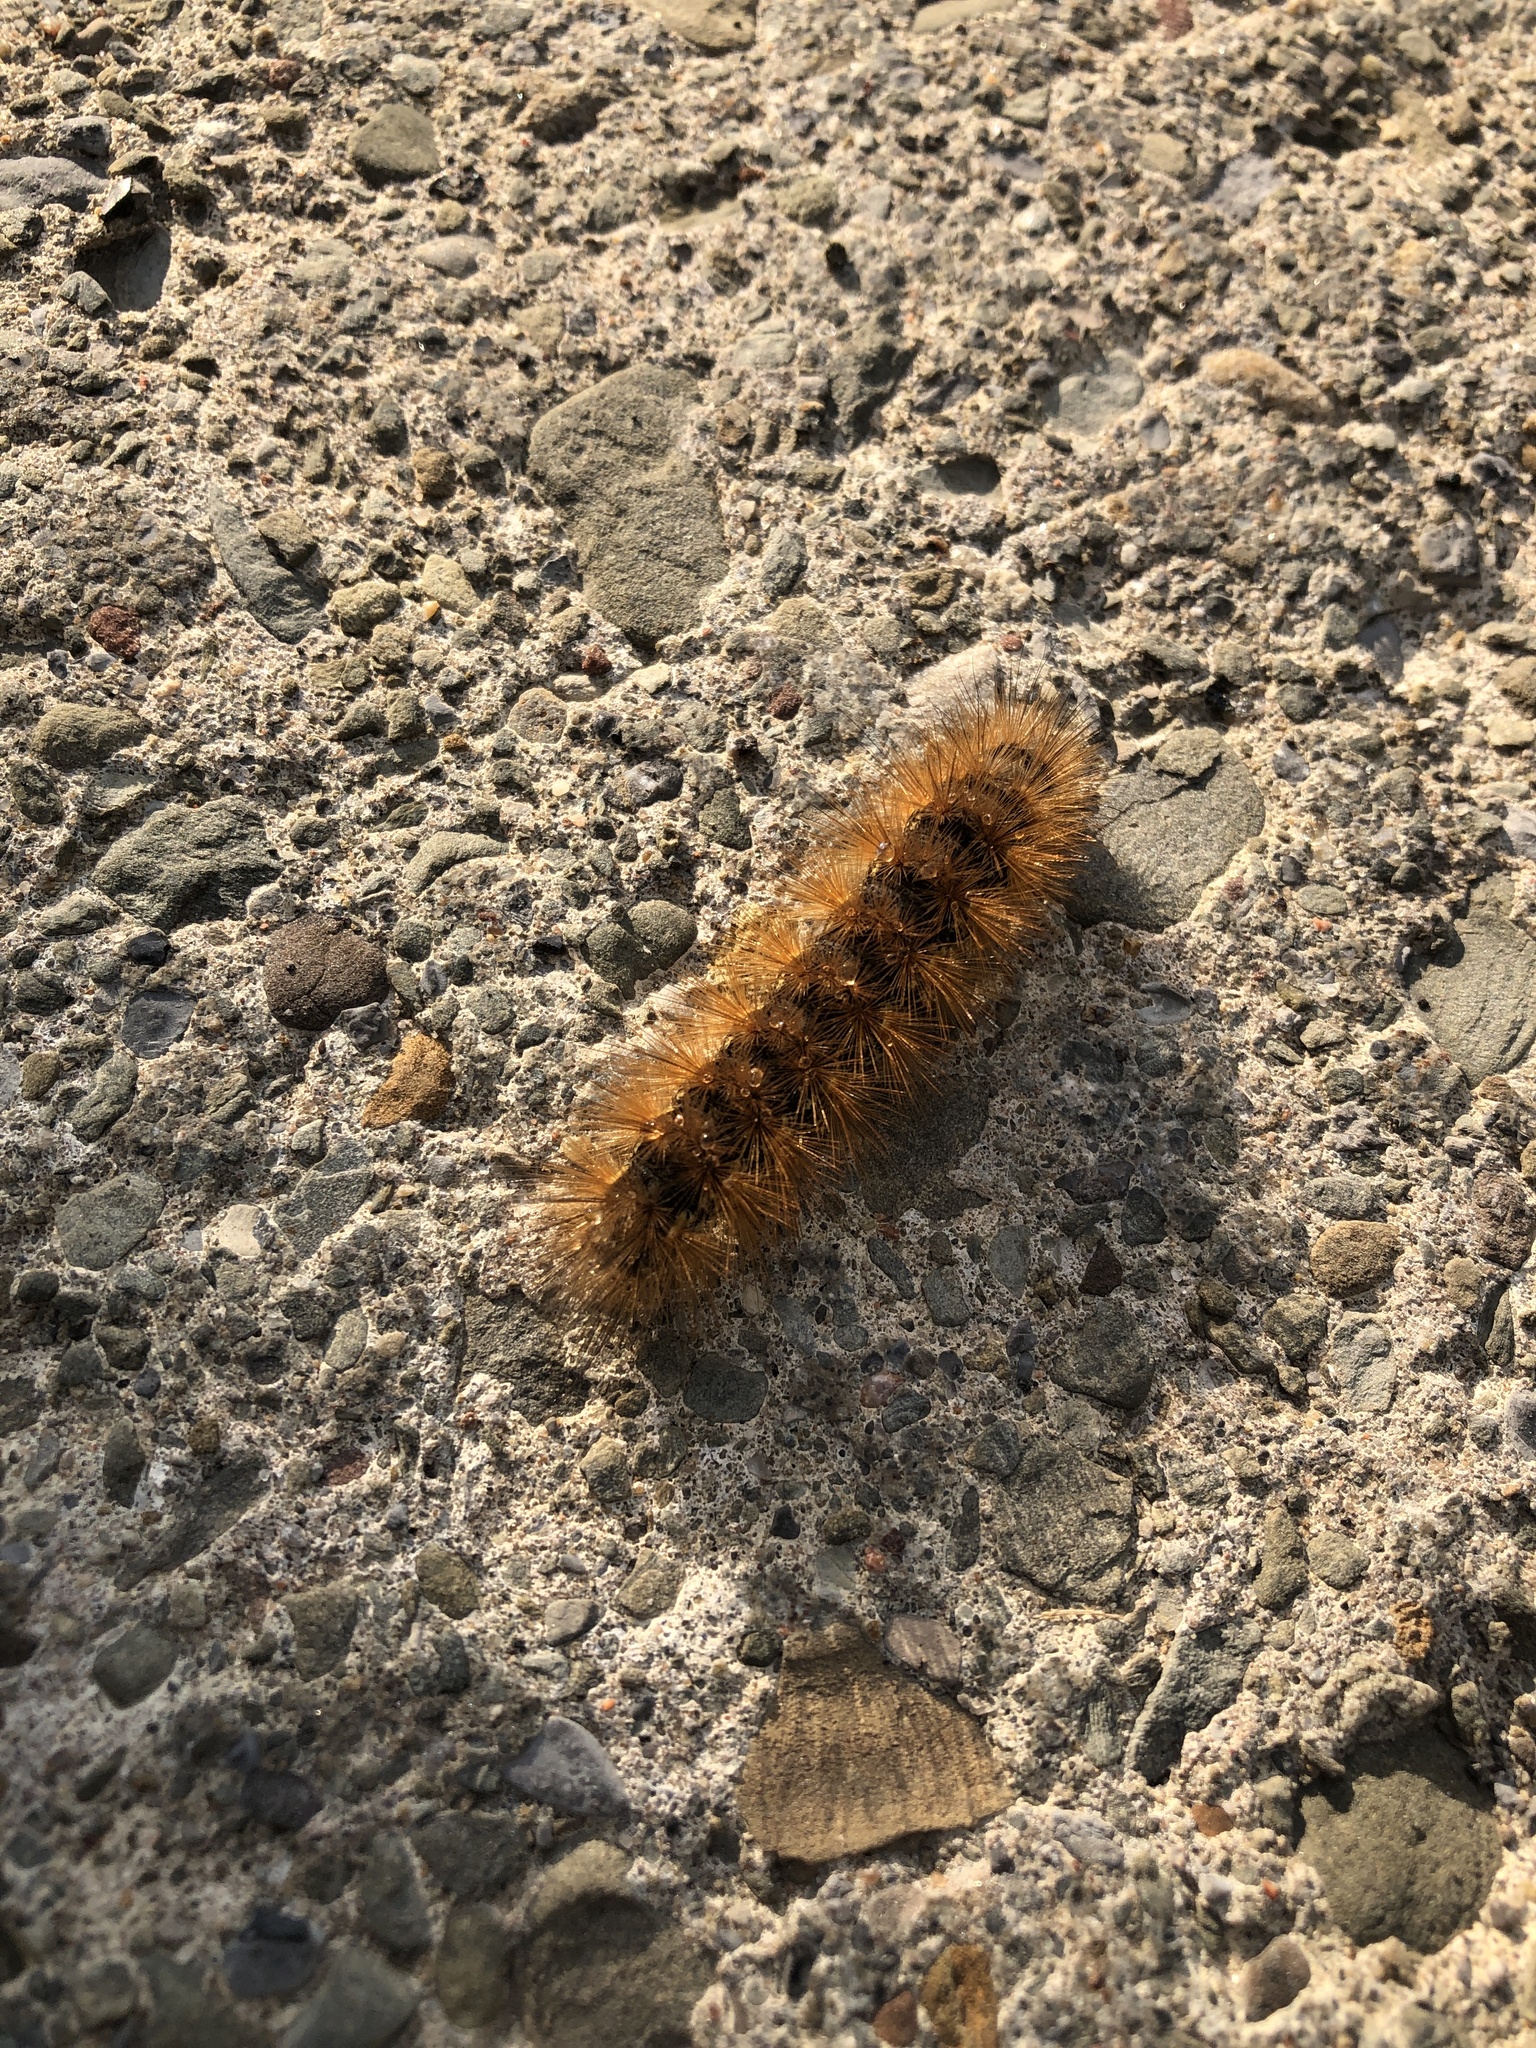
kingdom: Animalia
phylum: Arthropoda
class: Insecta
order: Lepidoptera
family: Erebidae
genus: Estigmene
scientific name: Estigmene acrea
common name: Salt marsh moth
